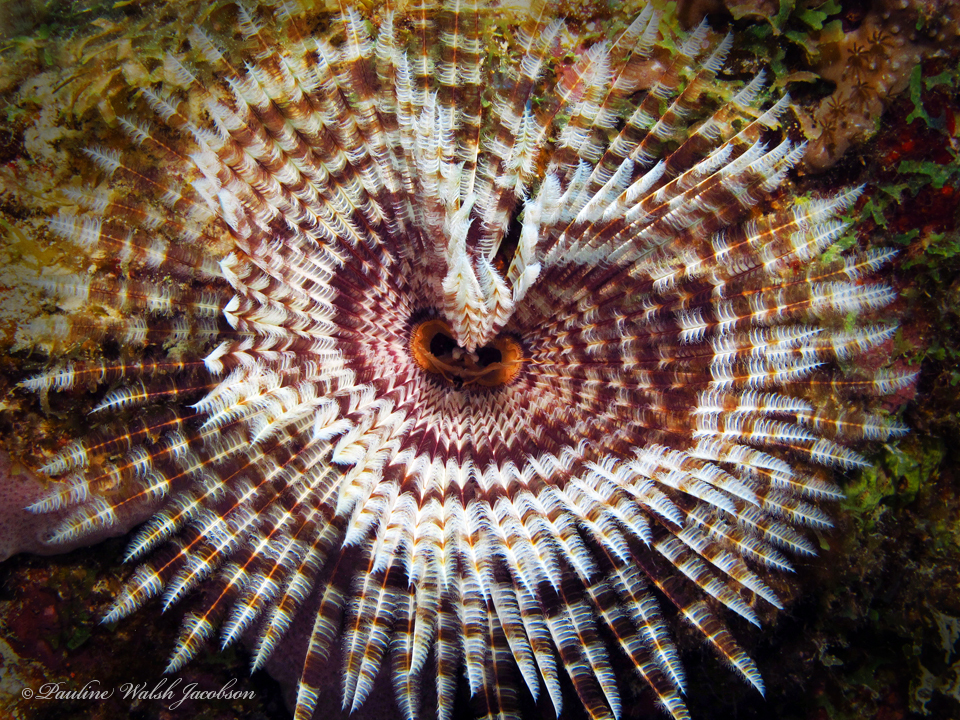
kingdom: Animalia
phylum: Annelida
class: Polychaeta
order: Sabellida
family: Sabellidae
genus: Sabellastarte
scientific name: Sabellastarte magnifica
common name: Giant feather-duster worm
